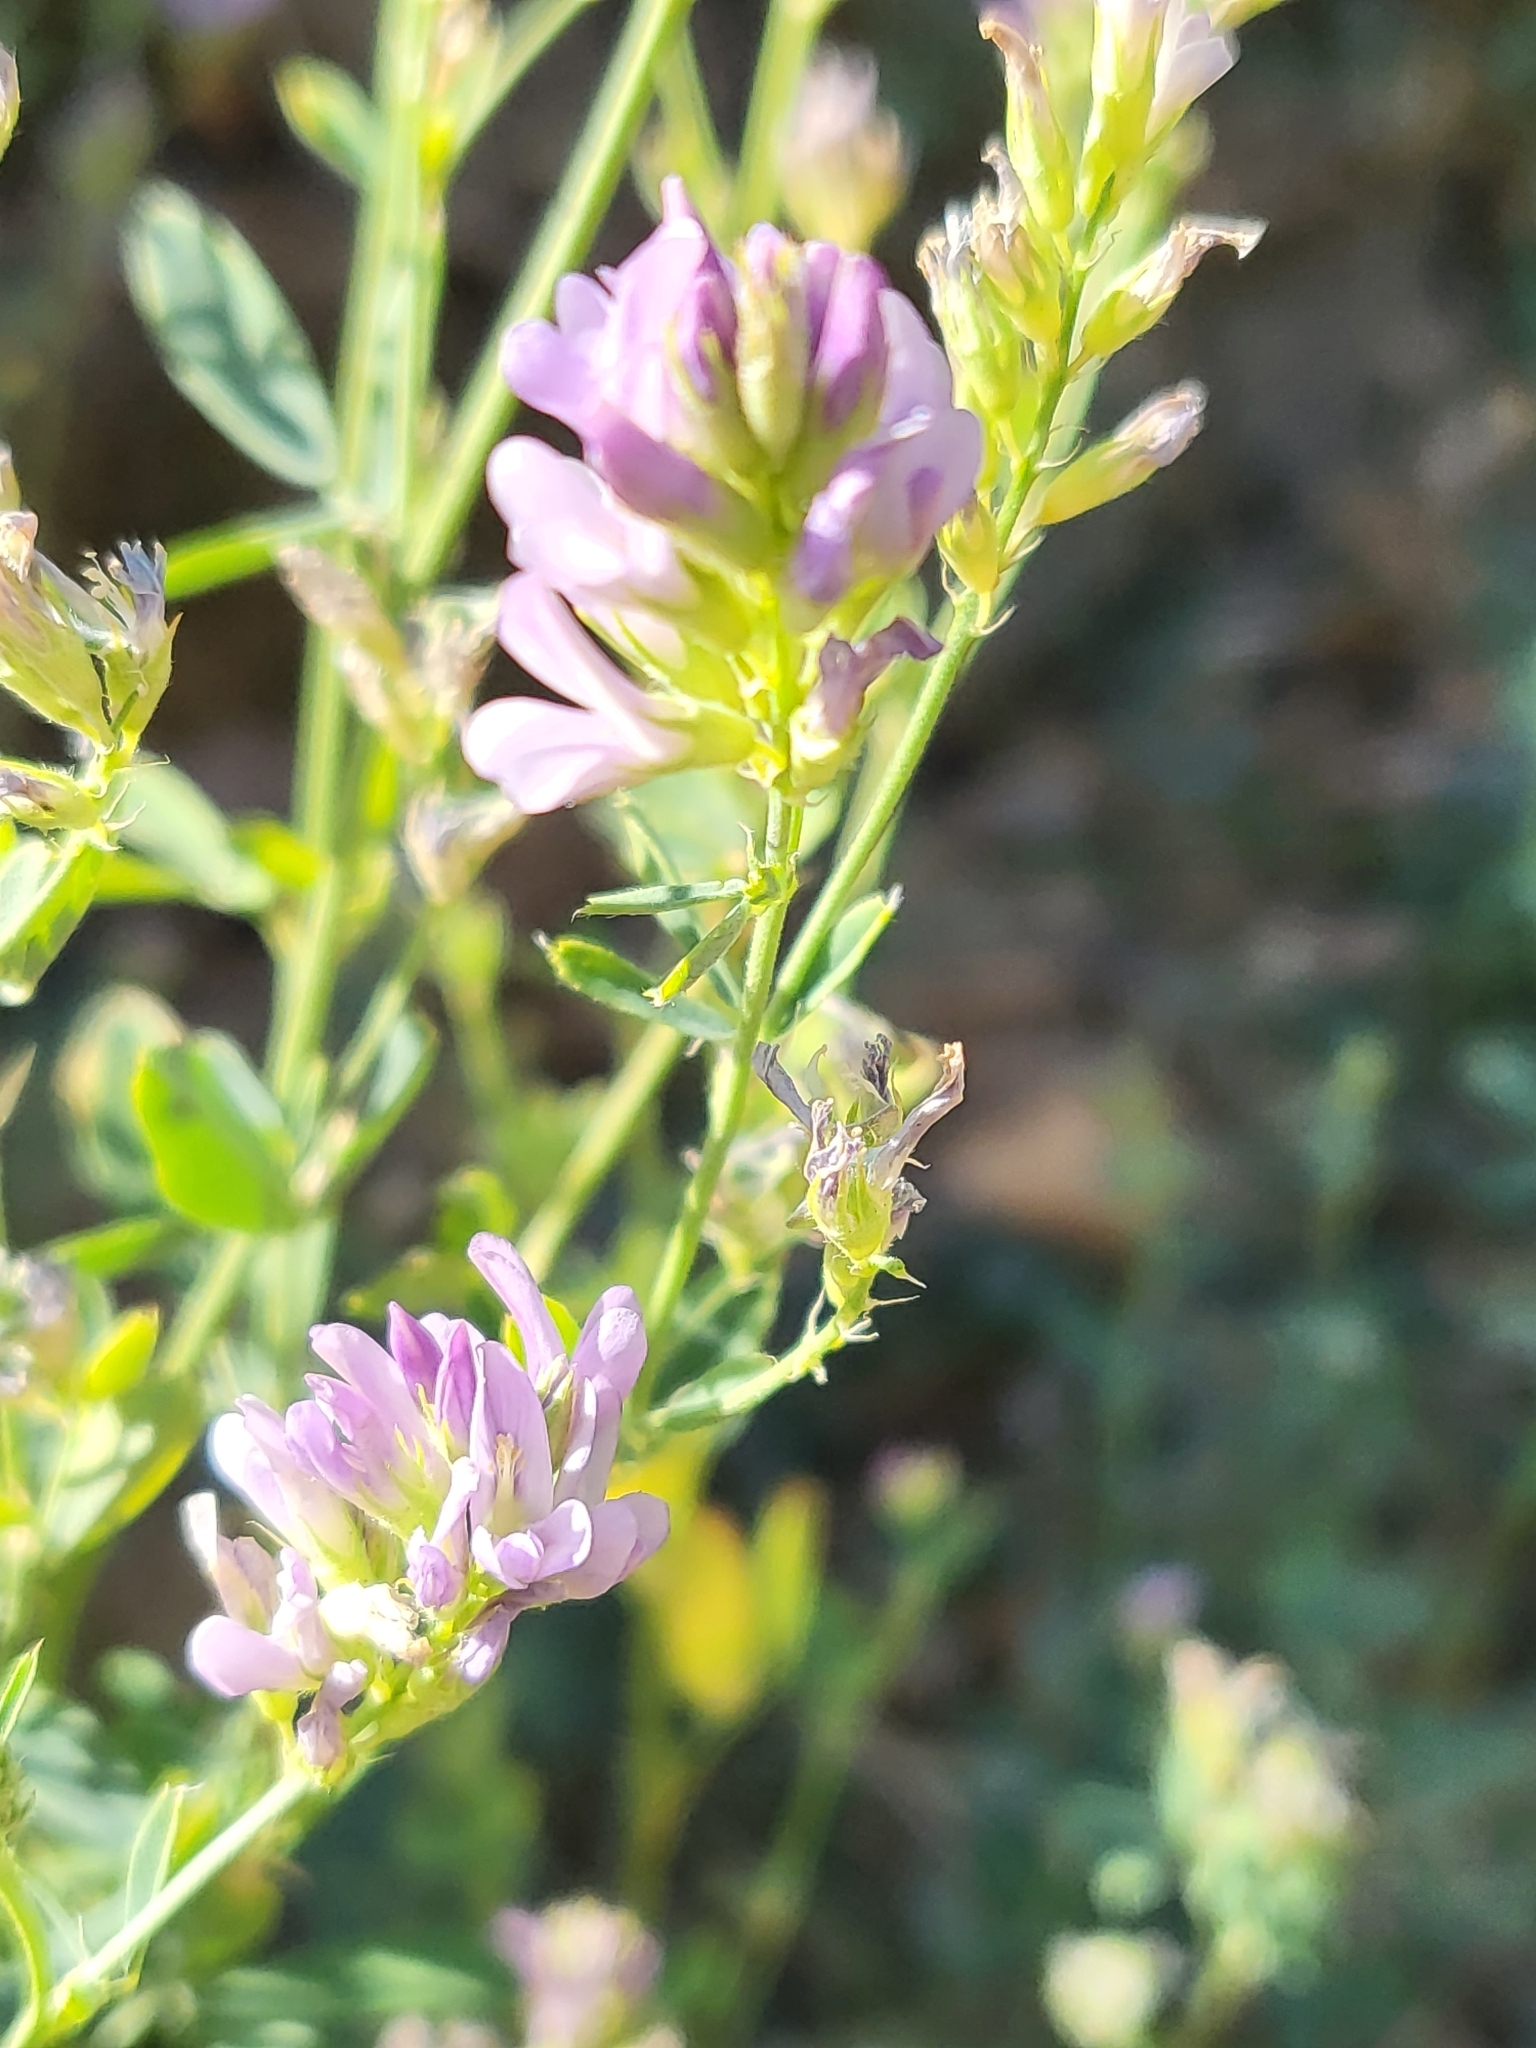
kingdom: Plantae
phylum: Tracheophyta
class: Magnoliopsida
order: Fabales
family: Fabaceae
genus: Medicago
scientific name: Medicago sativa
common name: Alfalfa
